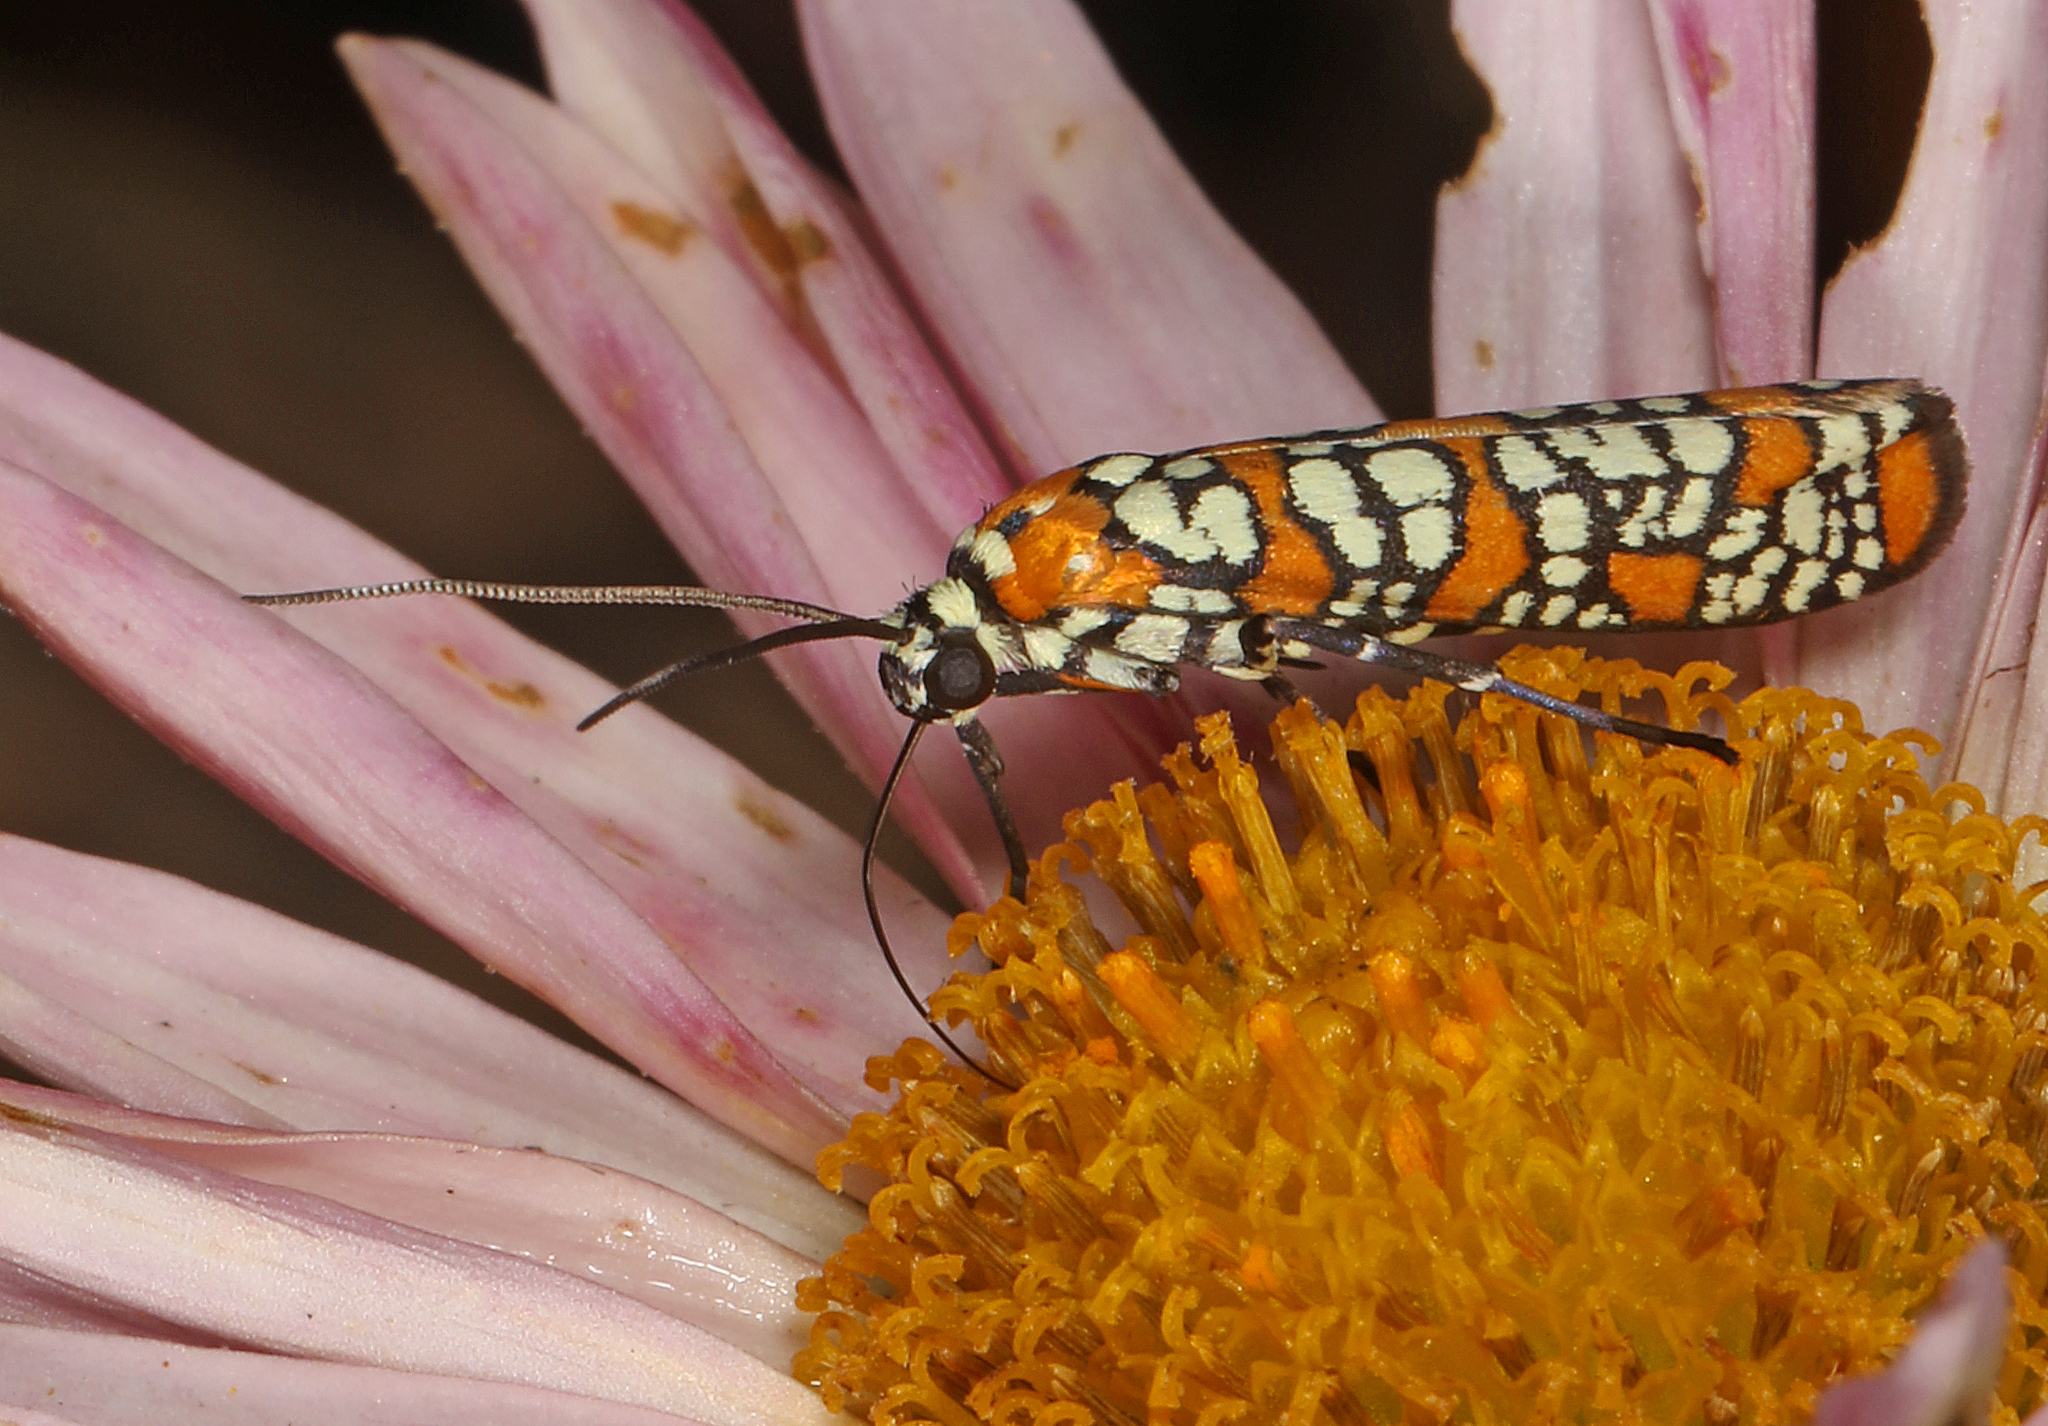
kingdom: Animalia
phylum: Arthropoda
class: Insecta
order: Lepidoptera
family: Attevidae
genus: Atteva
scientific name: Atteva punctella
